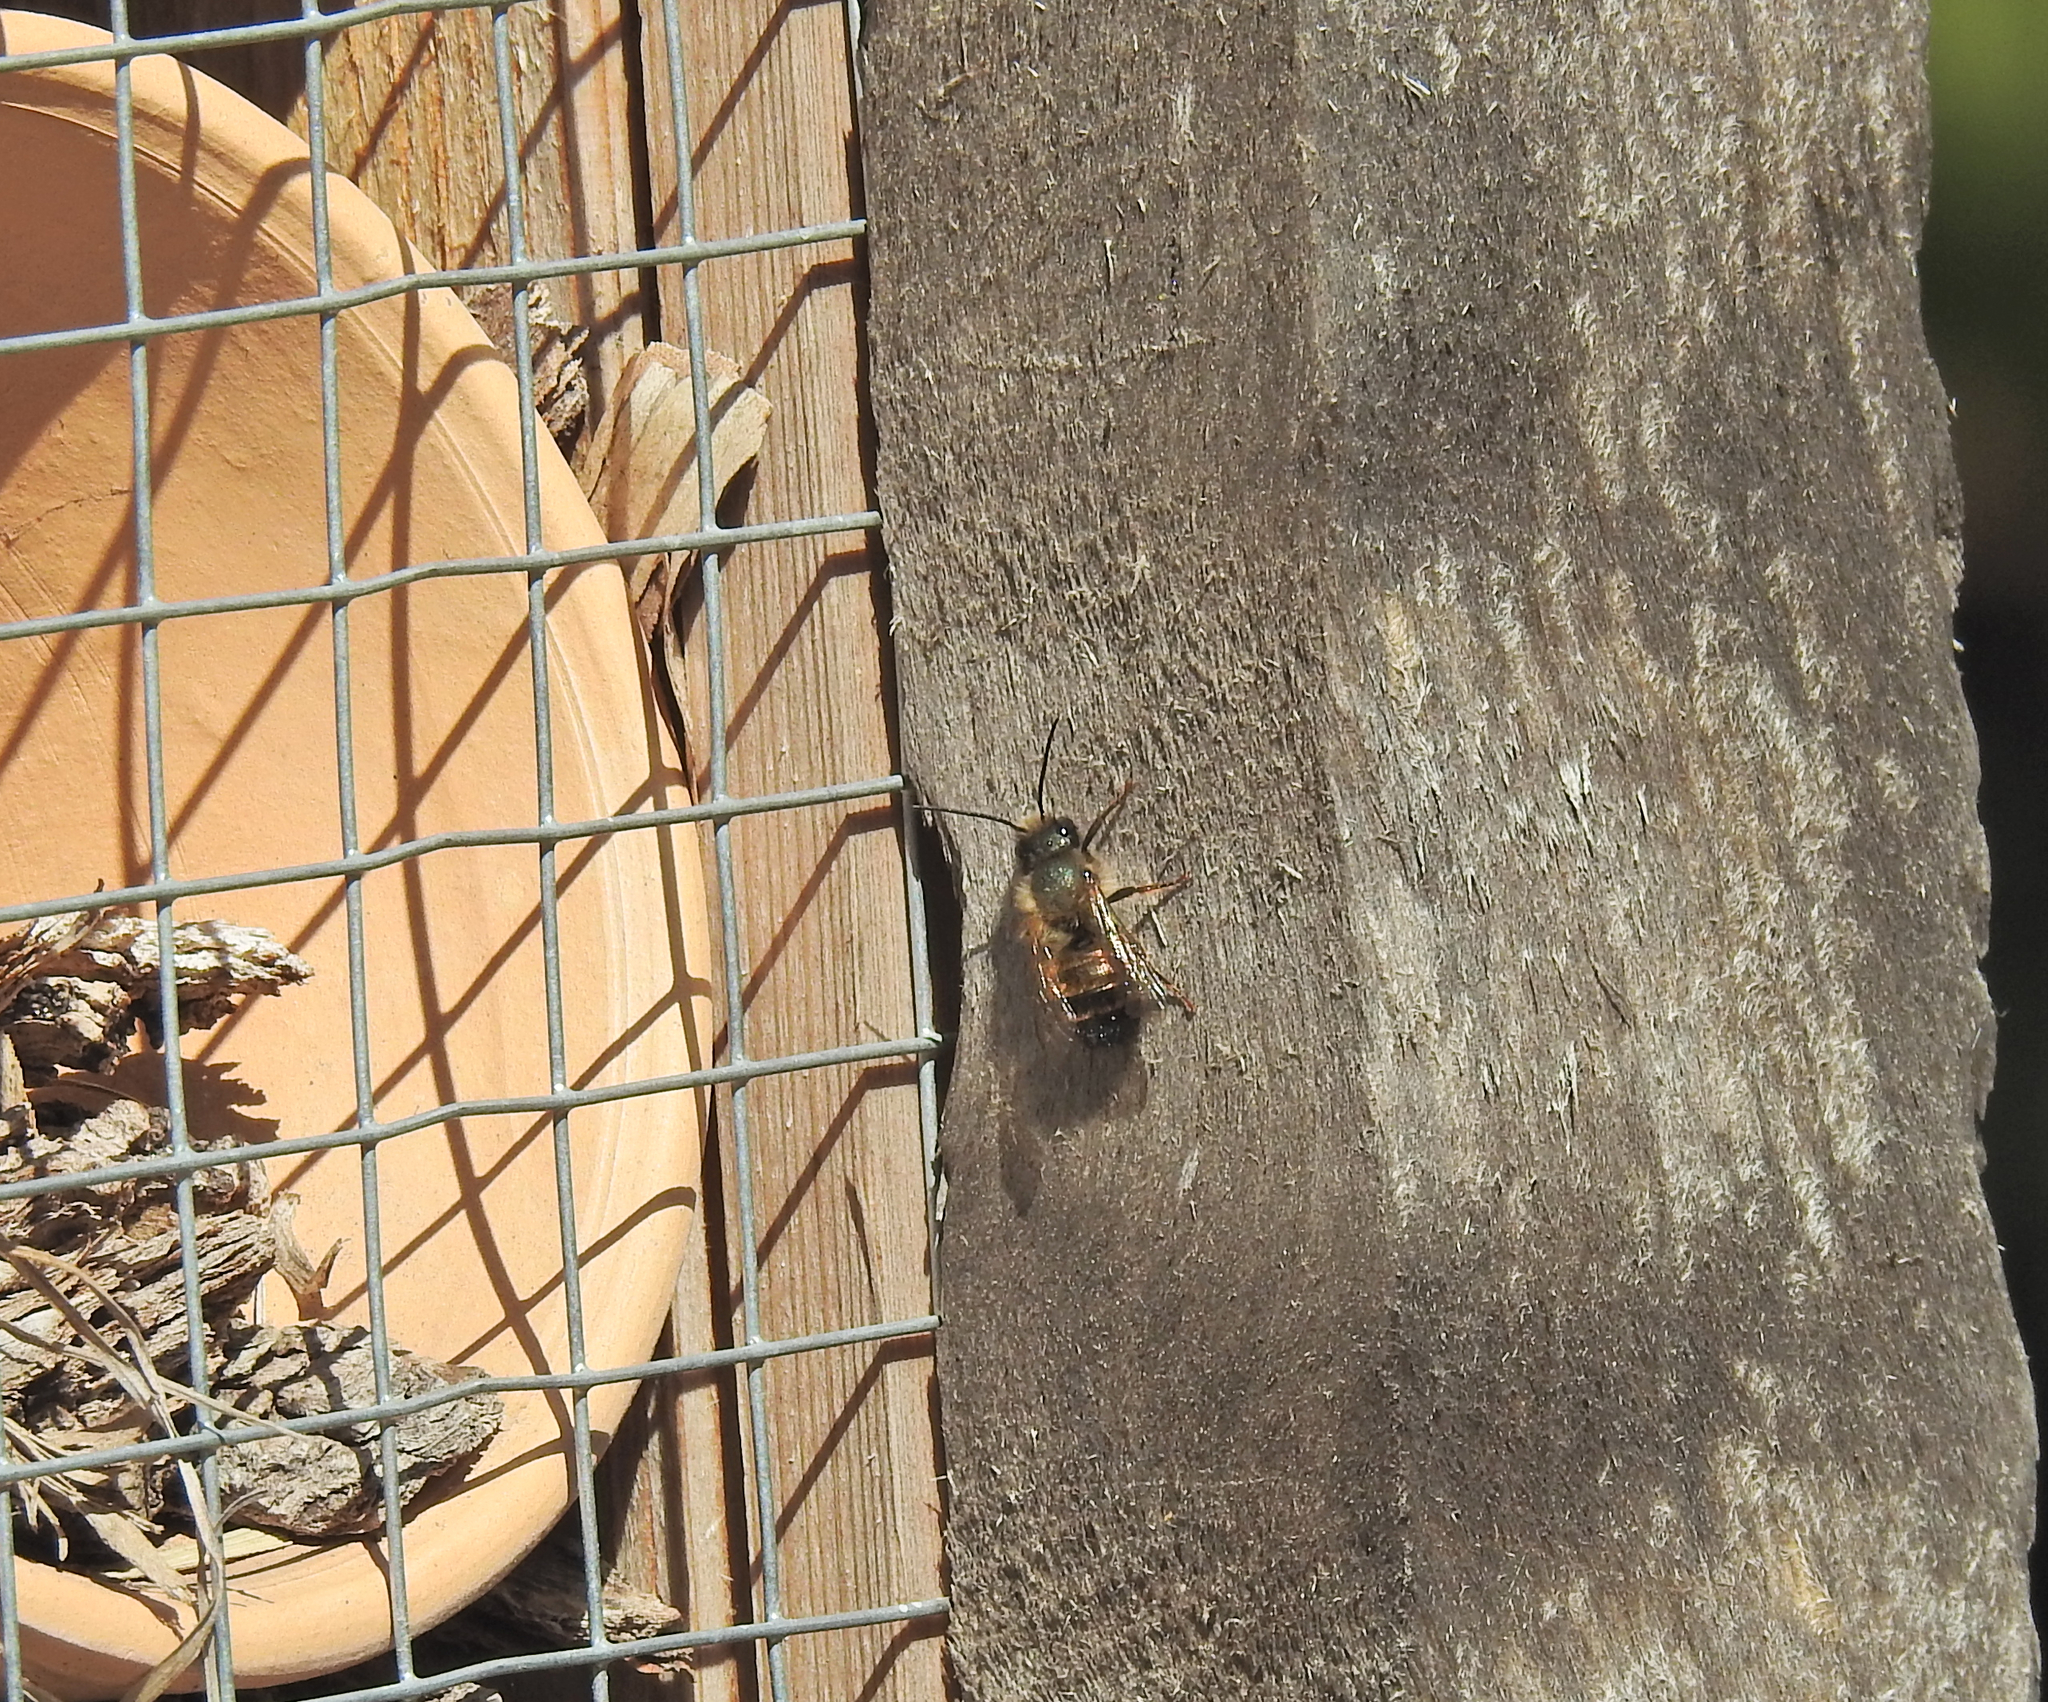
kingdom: Animalia
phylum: Arthropoda
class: Insecta
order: Hymenoptera
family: Megachilidae
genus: Osmia
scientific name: Osmia bicornis
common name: Red mason bee
